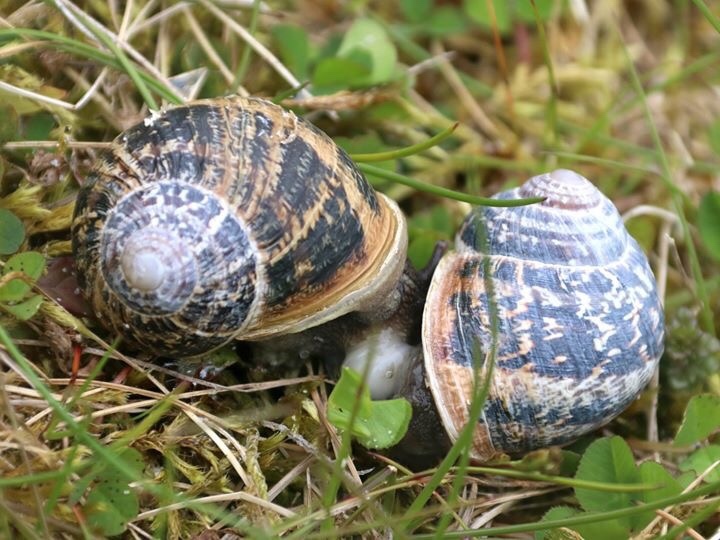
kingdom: Animalia
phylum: Mollusca
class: Gastropoda
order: Stylommatophora
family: Helicidae
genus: Cornu
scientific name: Cornu aspersum
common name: Brown garden snail
